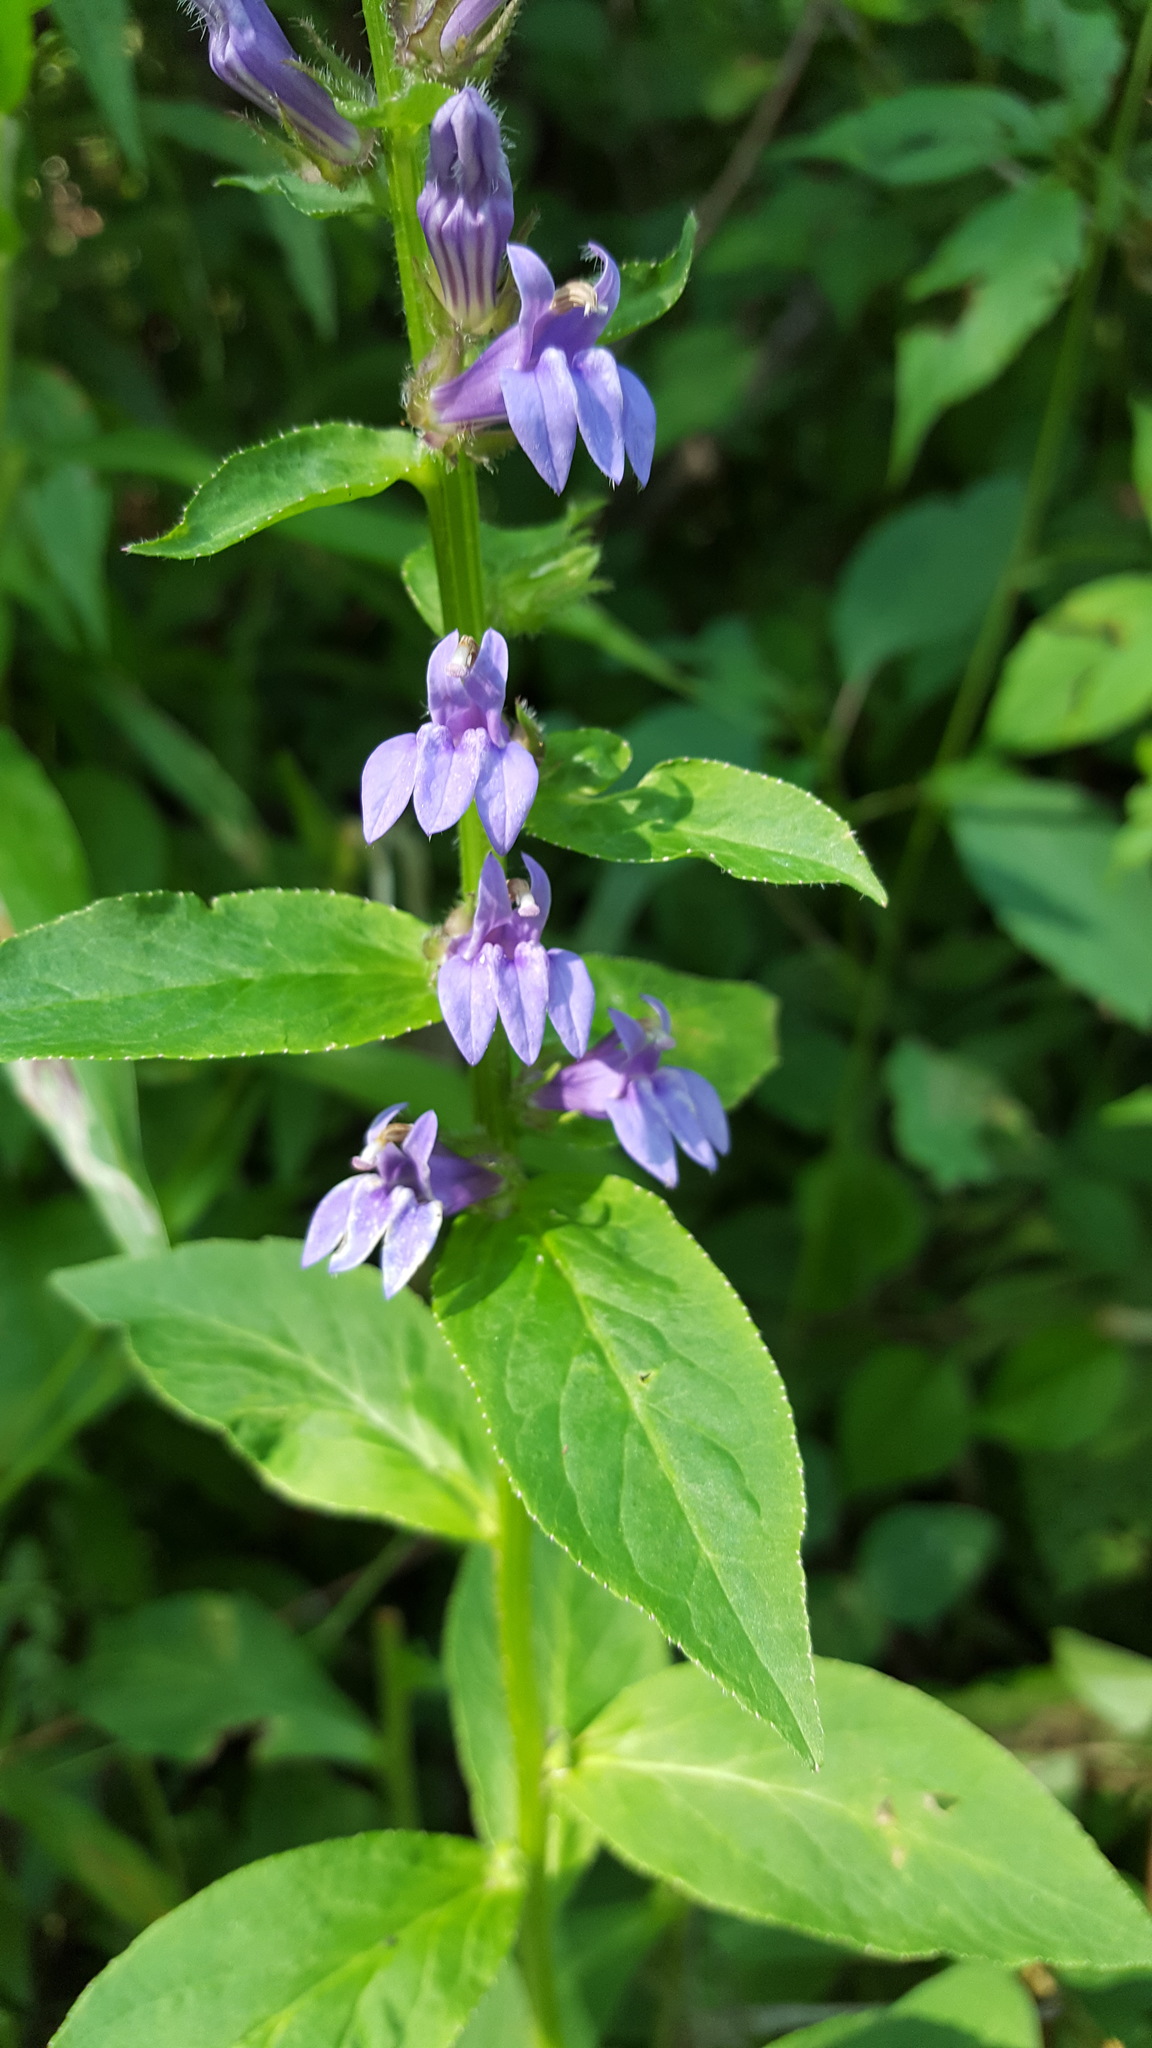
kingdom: Plantae
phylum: Tracheophyta
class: Magnoliopsida
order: Asterales
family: Campanulaceae
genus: Lobelia
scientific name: Lobelia siphilitica
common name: Great lobelia
